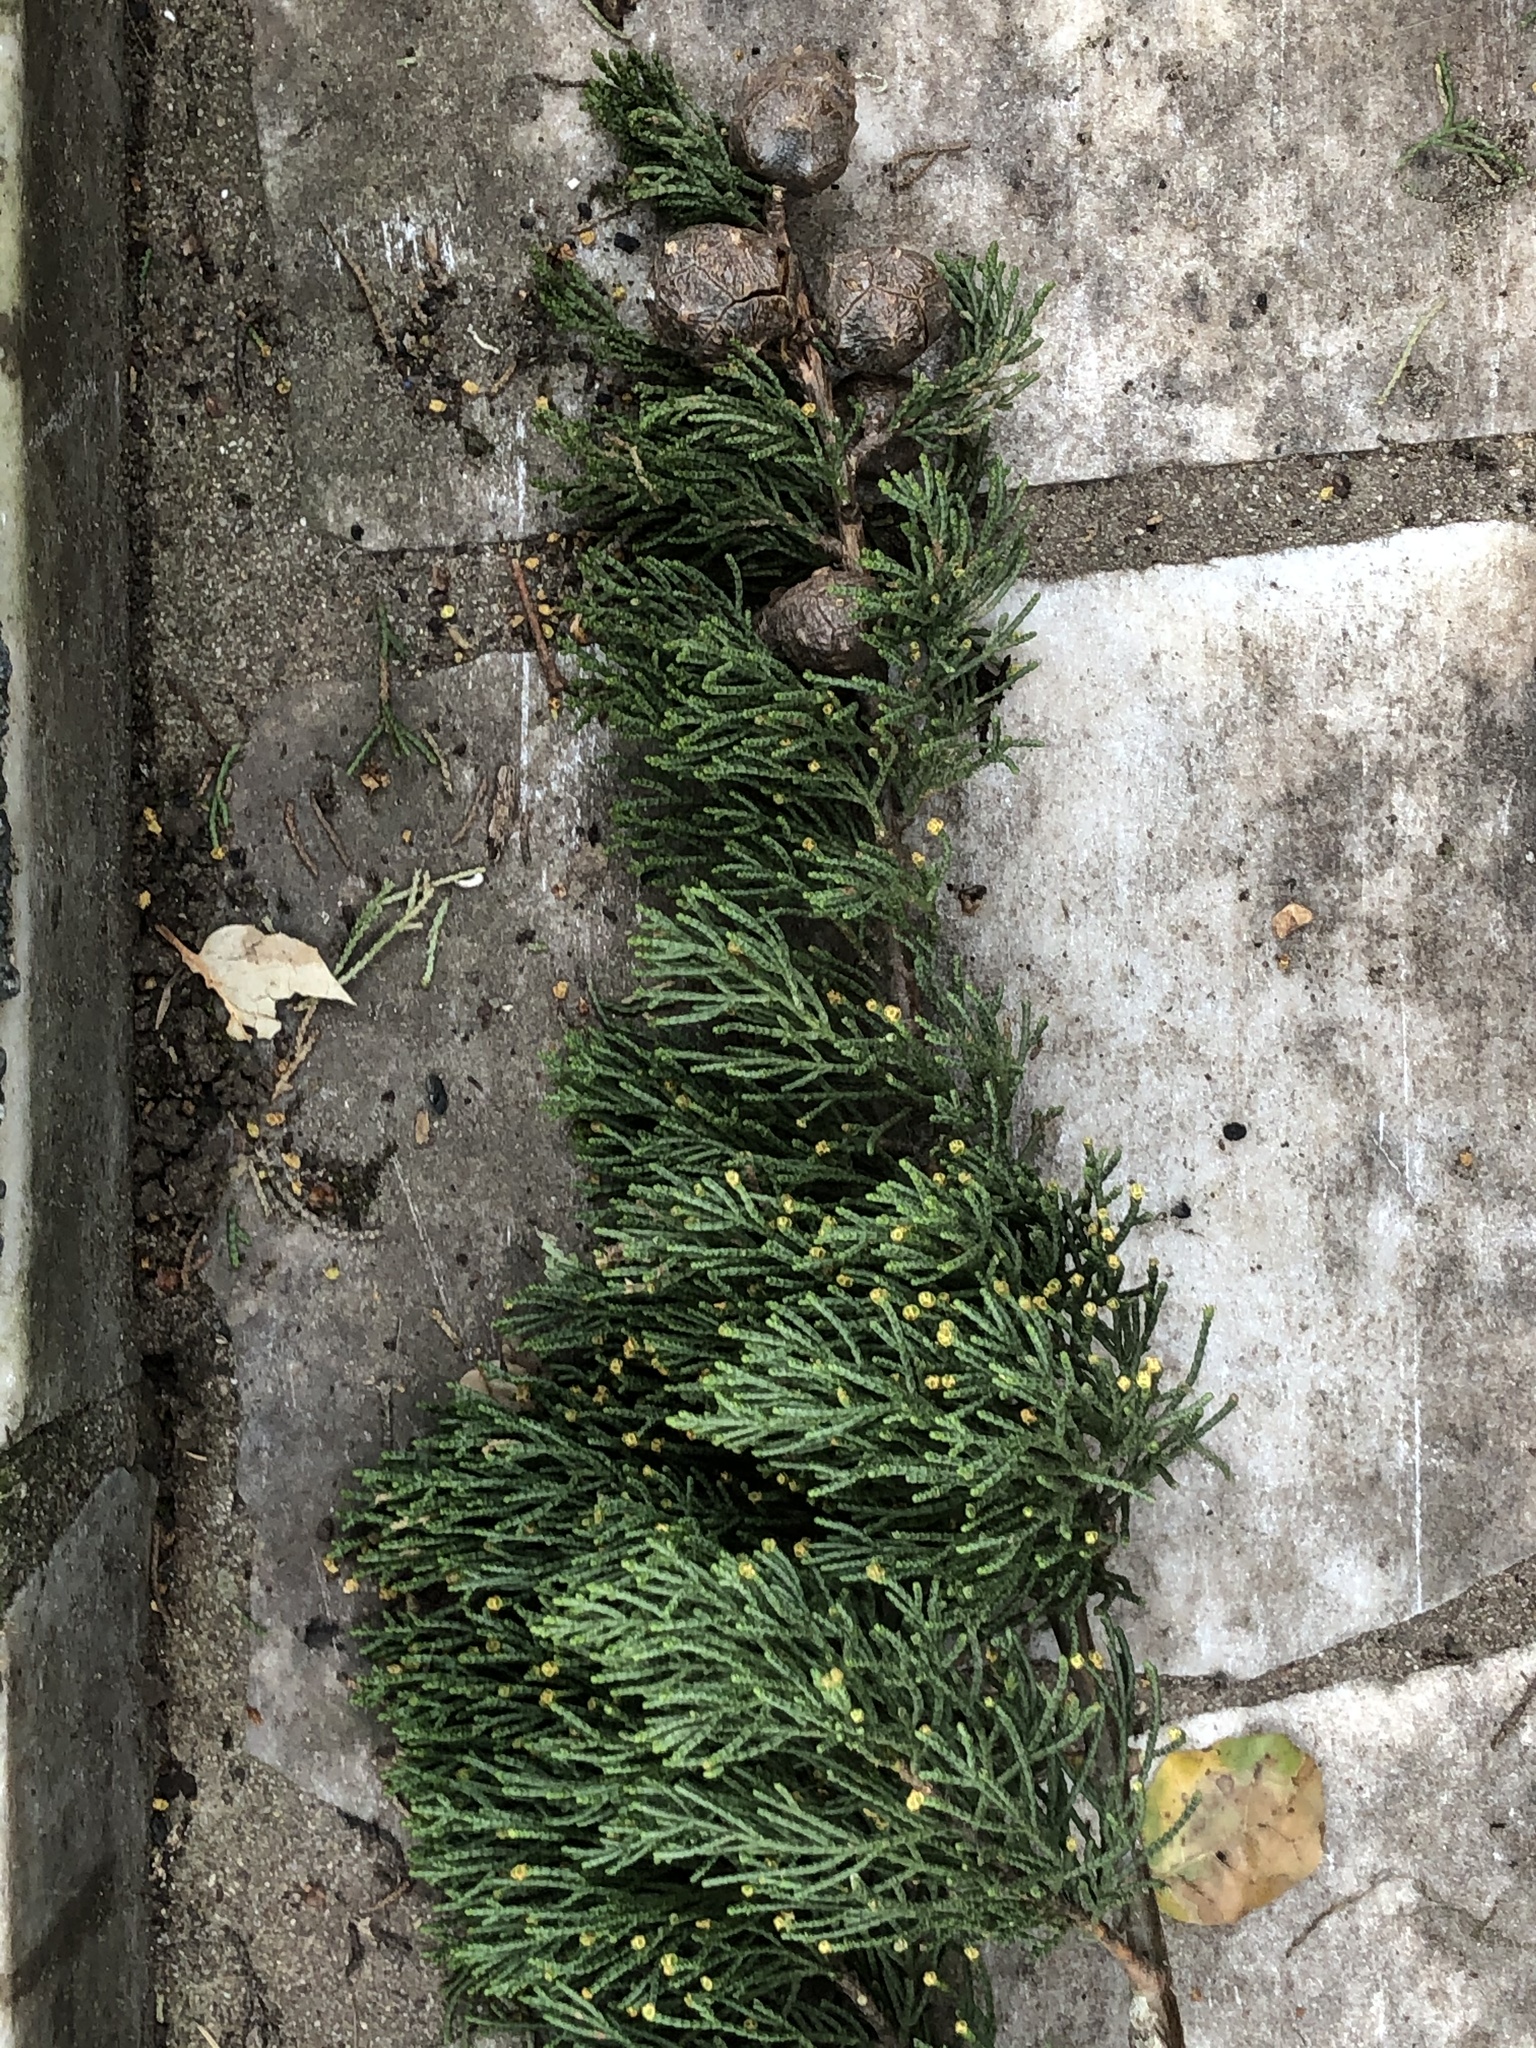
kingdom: Plantae
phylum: Tracheophyta
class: Pinopsida
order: Pinales
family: Cupressaceae
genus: Cupressus
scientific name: Cupressus macrocarpa
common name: Monterey cypress
